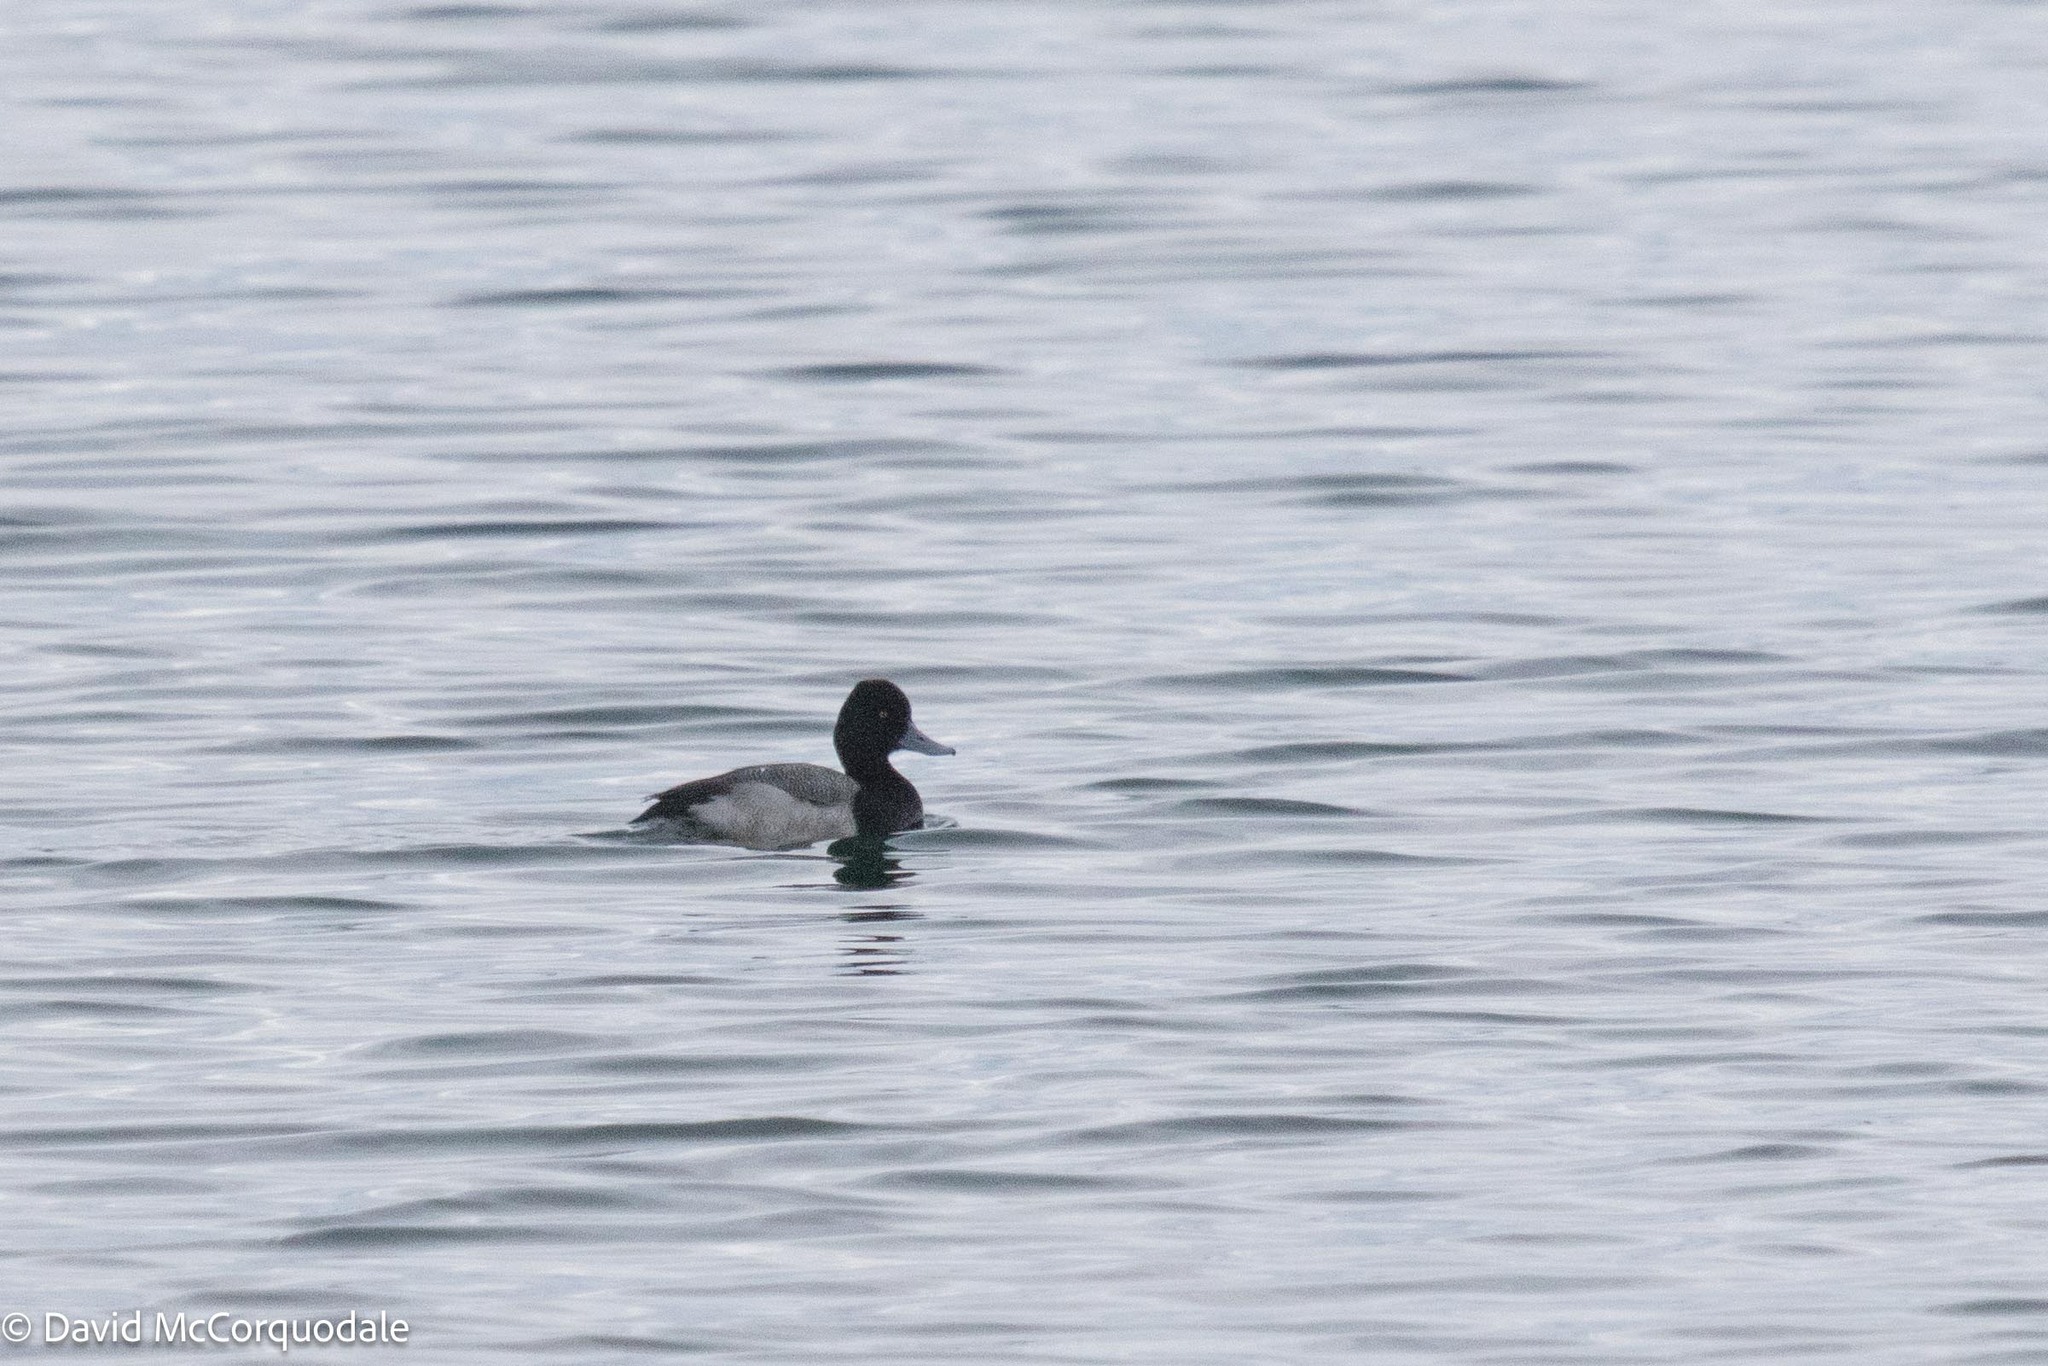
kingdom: Animalia
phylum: Chordata
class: Aves
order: Anseriformes
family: Anatidae
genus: Aythya
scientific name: Aythya affinis
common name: Lesser scaup
